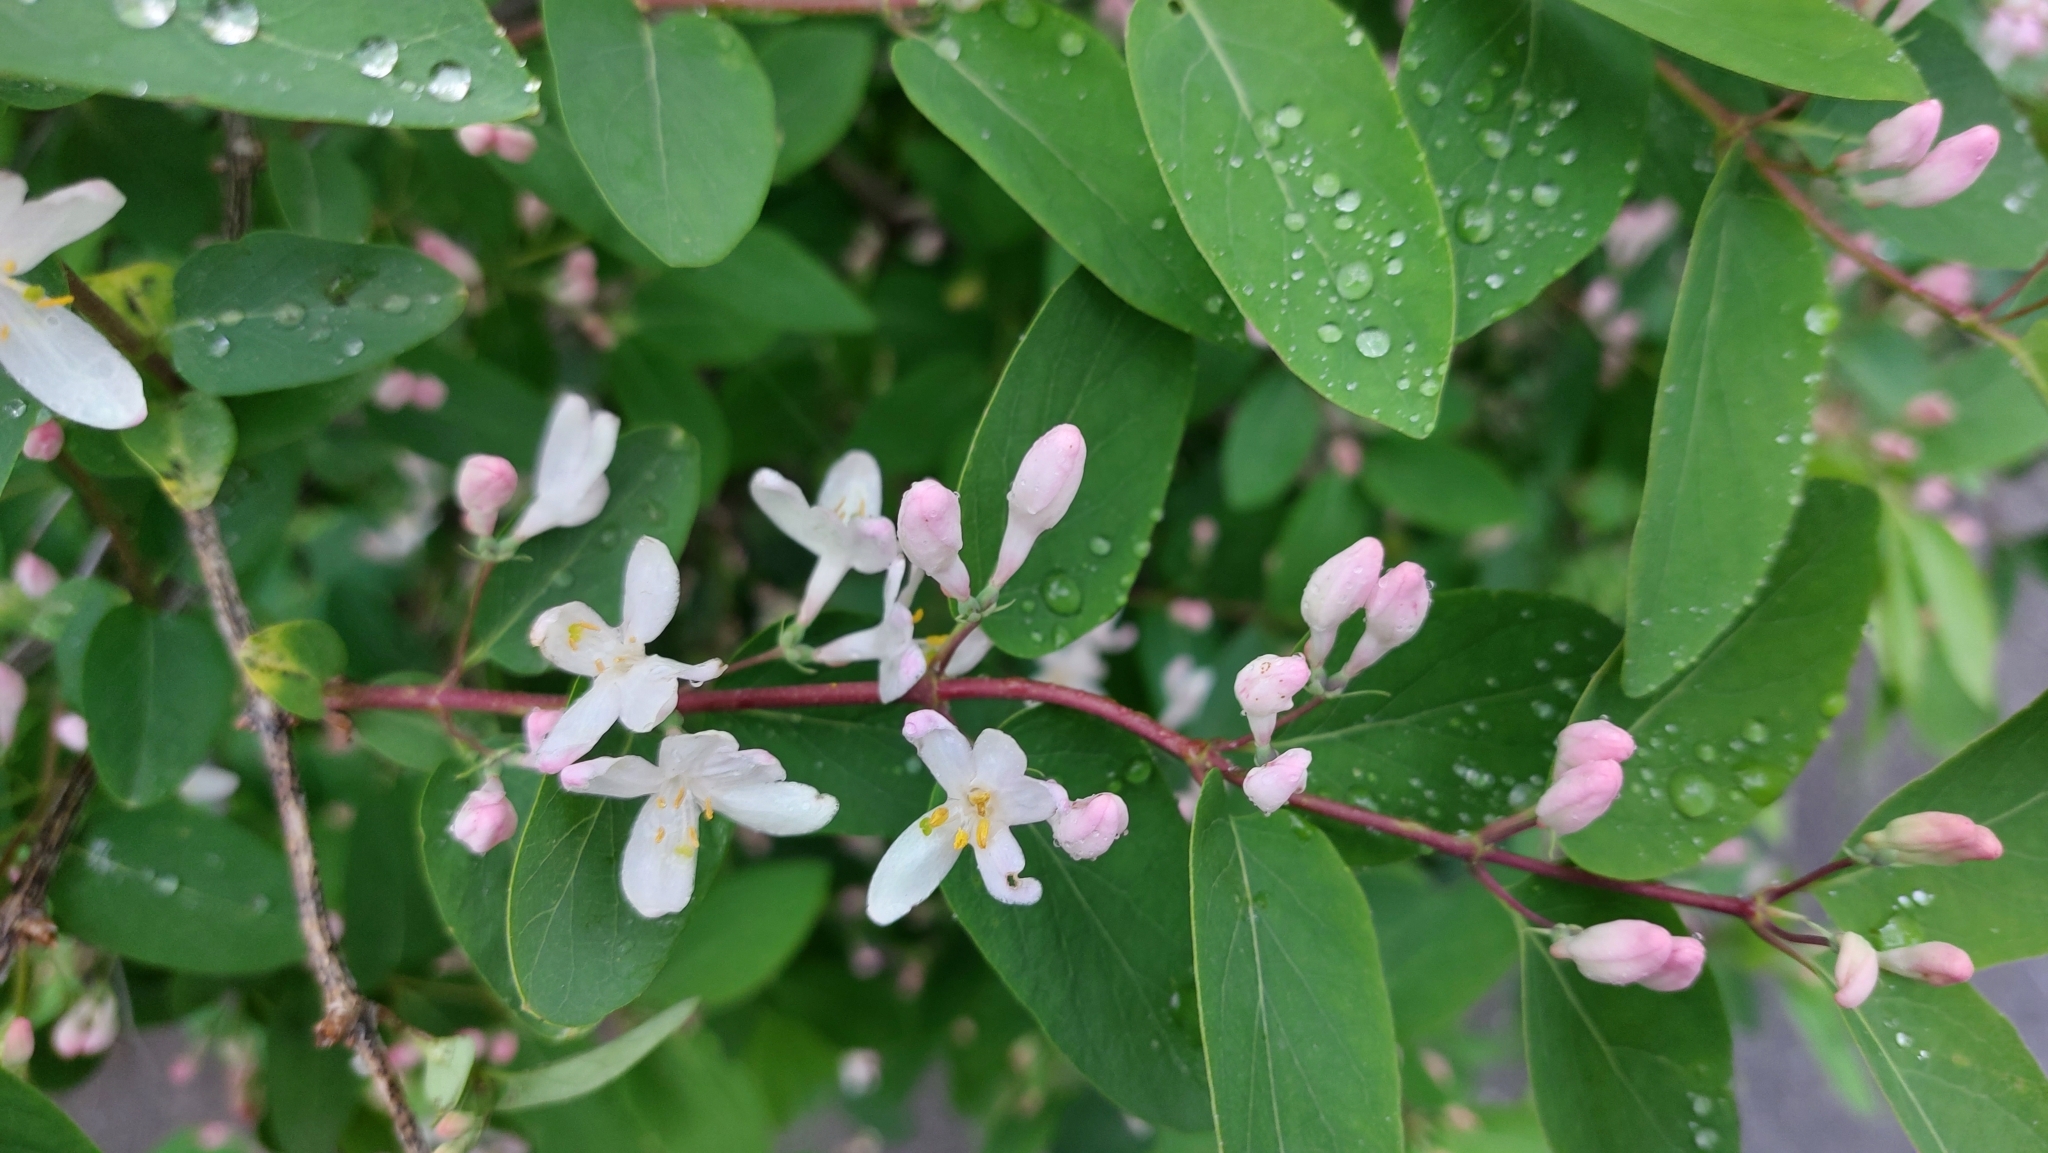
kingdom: Plantae
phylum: Tracheophyta
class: Magnoliopsida
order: Dipsacales
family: Caprifoliaceae
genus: Lonicera
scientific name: Lonicera tatarica
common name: Tatarian honeysuckle
